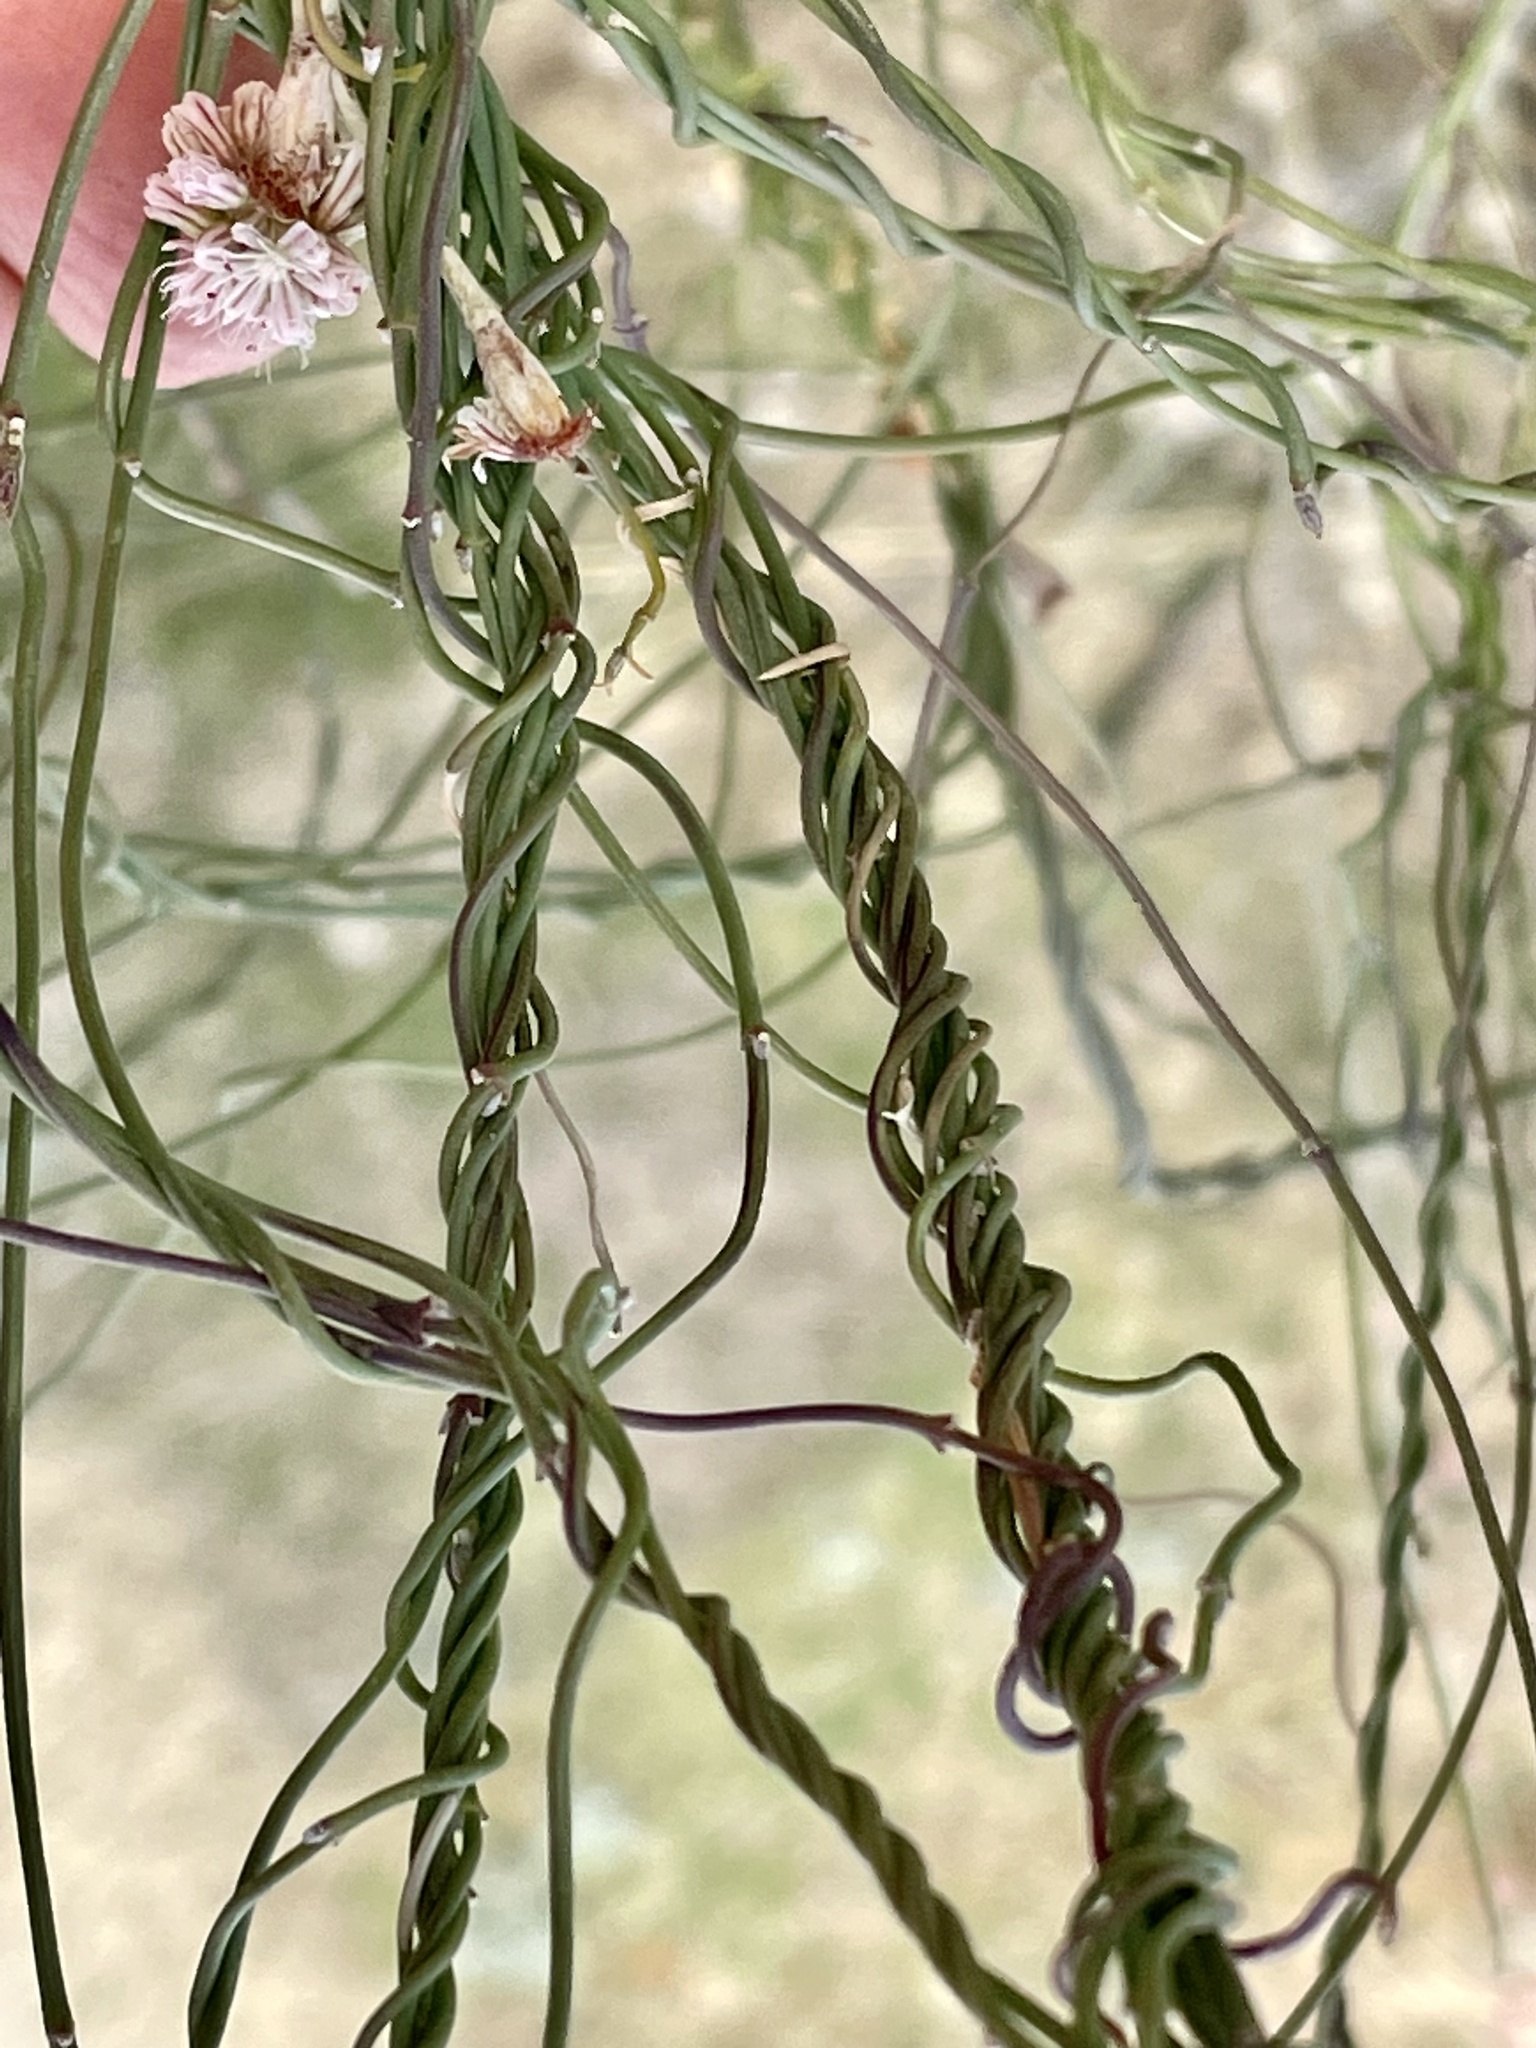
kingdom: Plantae
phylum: Tracheophyta
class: Magnoliopsida
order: Gentianales
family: Apocynaceae
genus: Funastrum
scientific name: Funastrum heterophyllum
